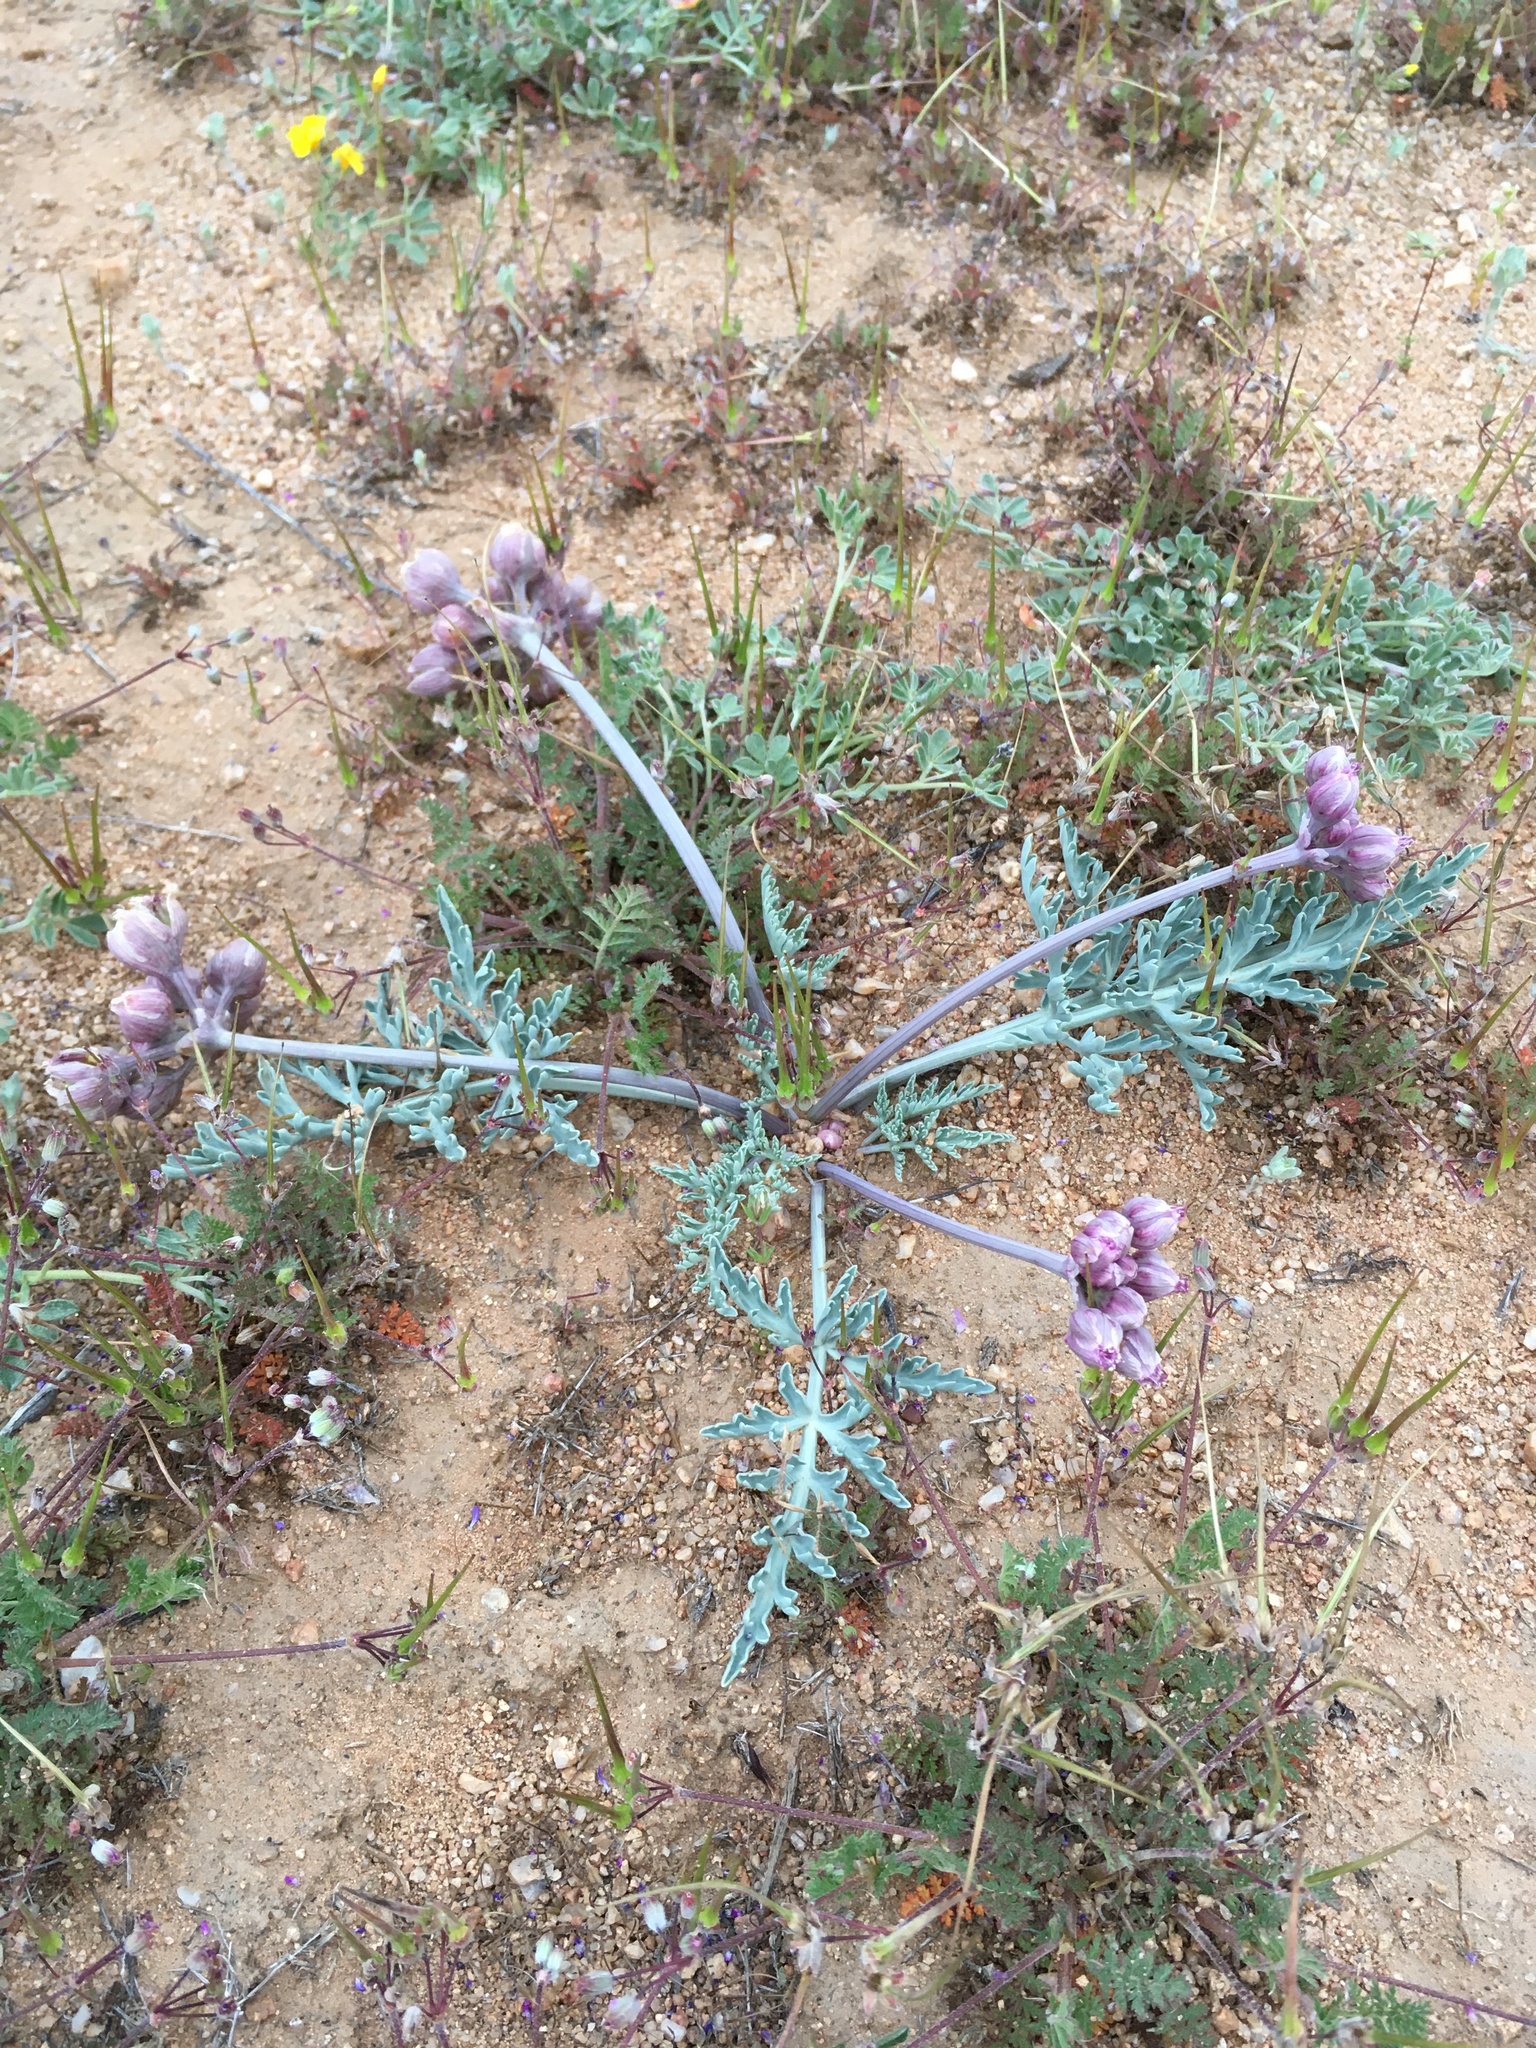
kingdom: Plantae
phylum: Tracheophyta
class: Magnoliopsida
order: Apiales
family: Apiaceae
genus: Vesper
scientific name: Vesper multinervatus
